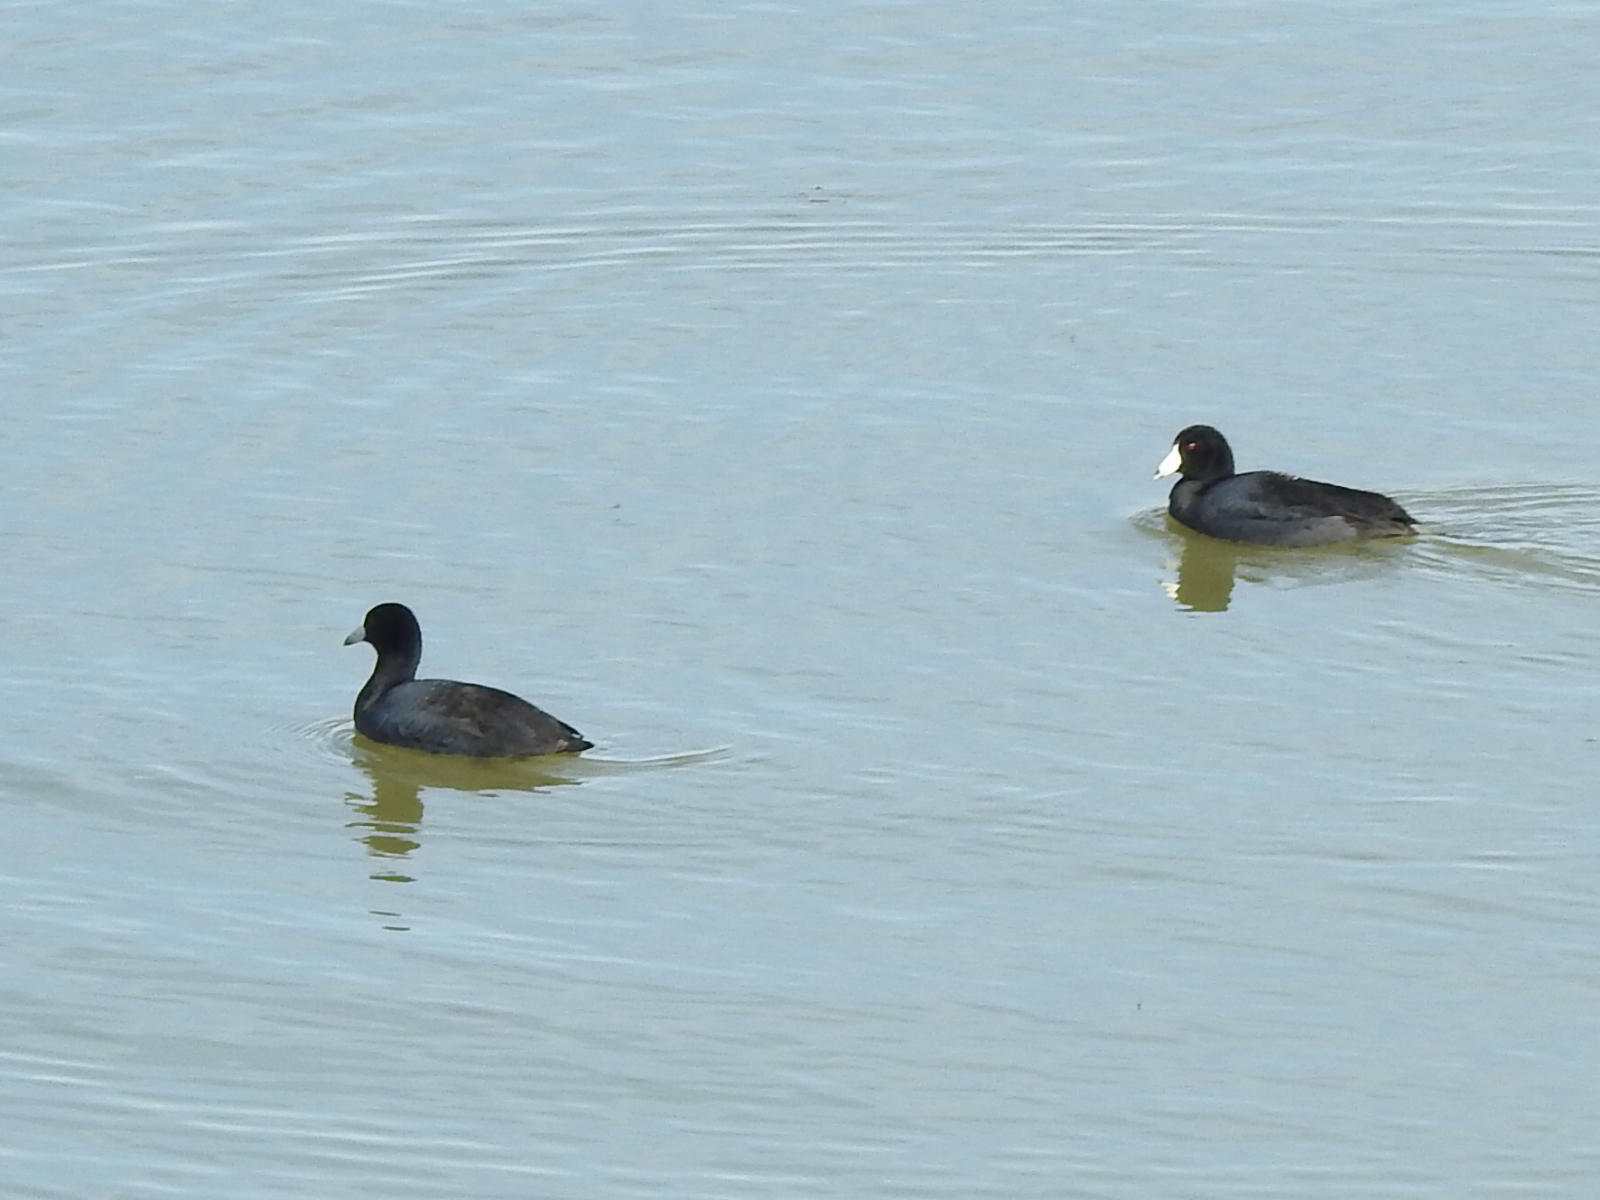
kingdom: Animalia
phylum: Chordata
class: Aves
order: Gruiformes
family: Rallidae
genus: Fulica
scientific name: Fulica americana
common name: American coot
